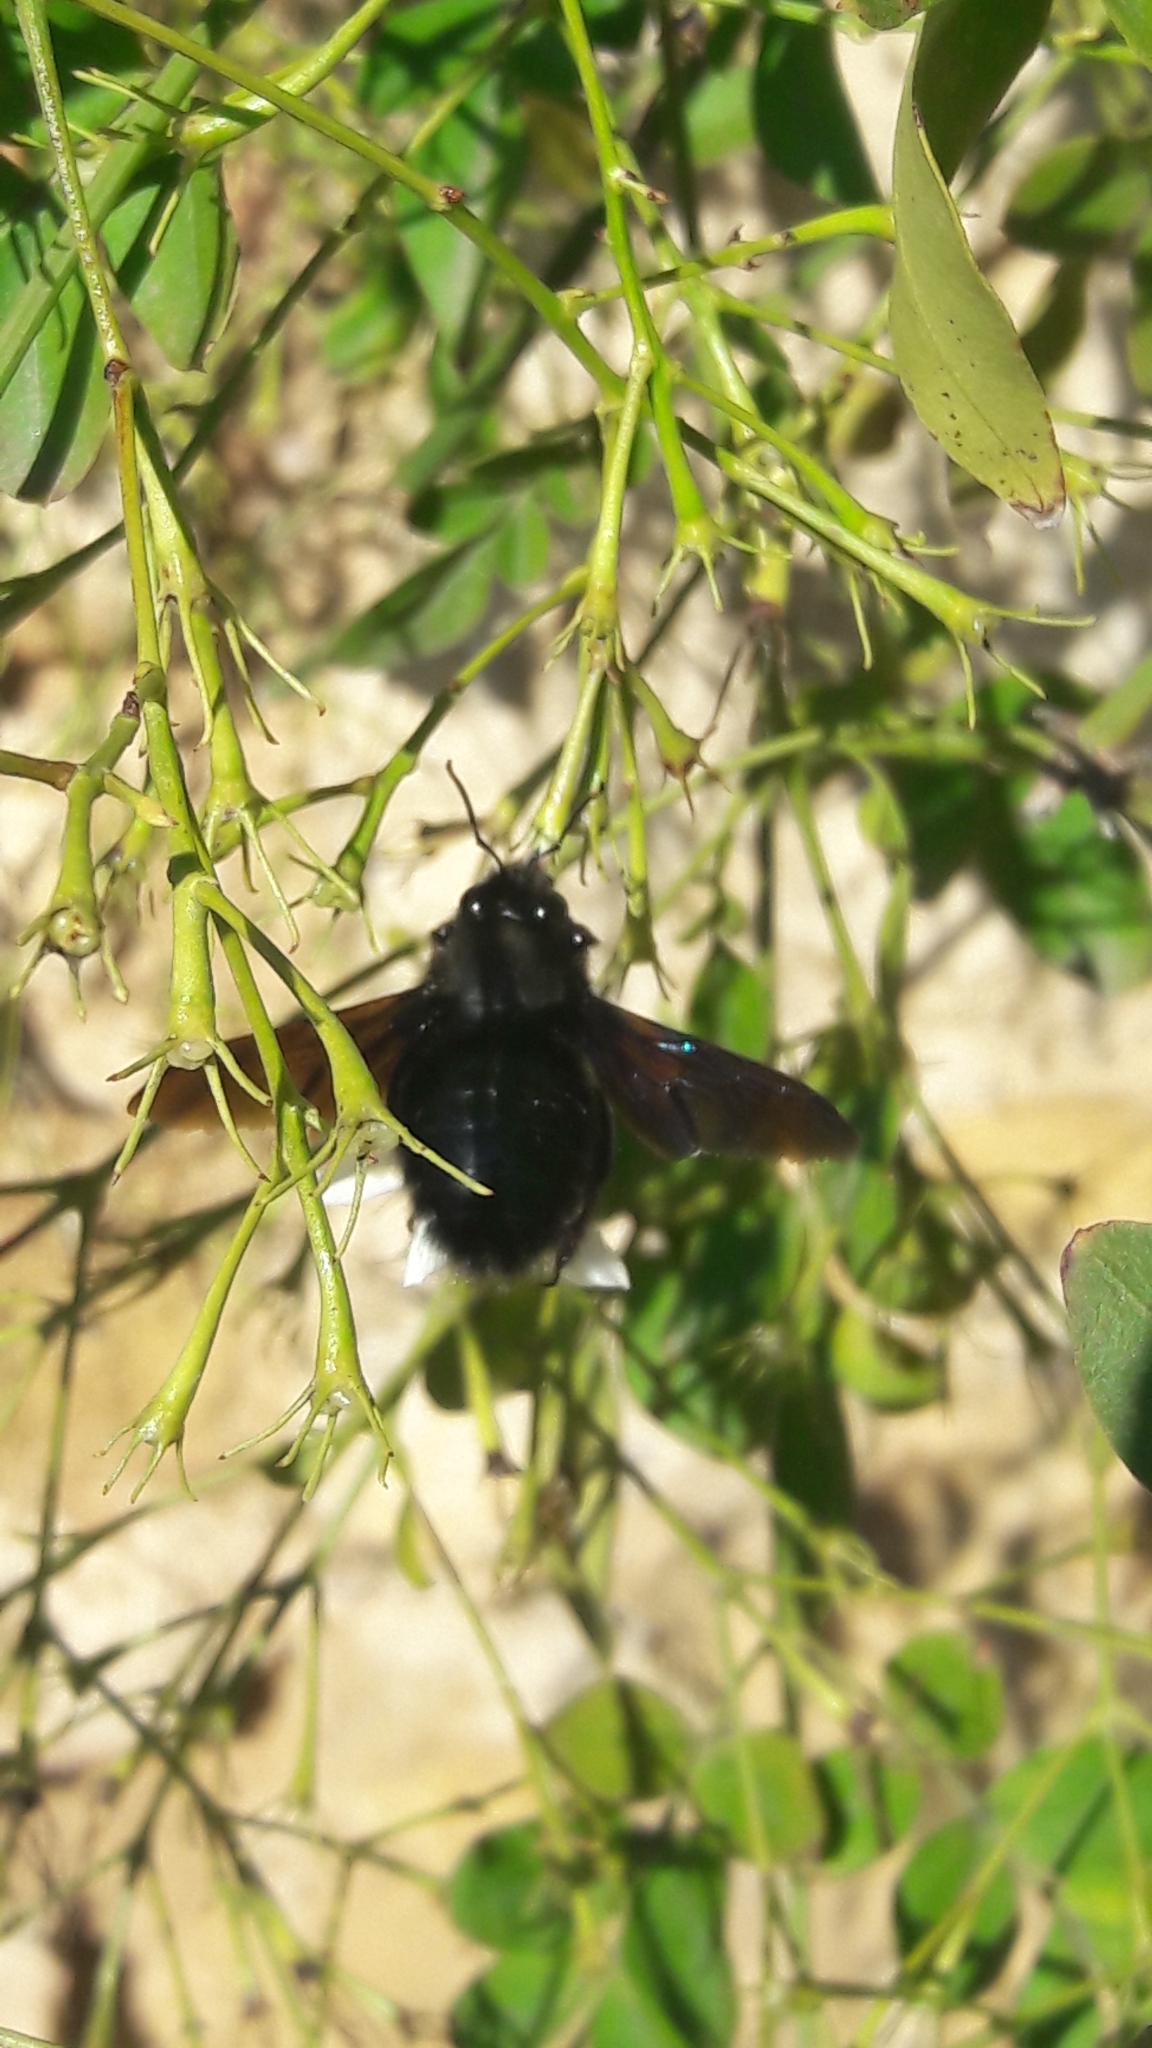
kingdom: Animalia
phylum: Arthropoda
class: Insecta
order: Hymenoptera
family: Apidae
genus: Xylocopa
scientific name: Xylocopa violacea
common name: Violet carpenter bee
